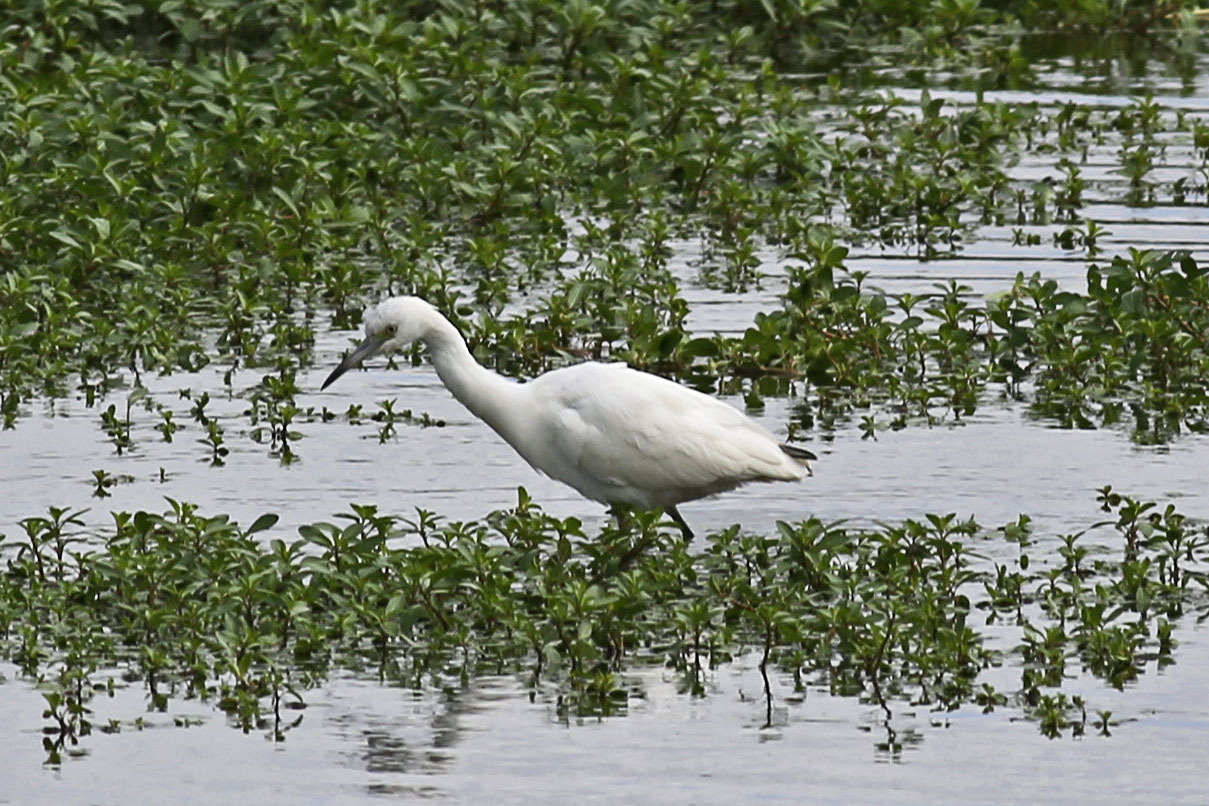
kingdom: Animalia
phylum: Chordata
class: Aves
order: Pelecaniformes
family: Ardeidae
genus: Egretta
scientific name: Egretta caerulea
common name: Little blue heron
